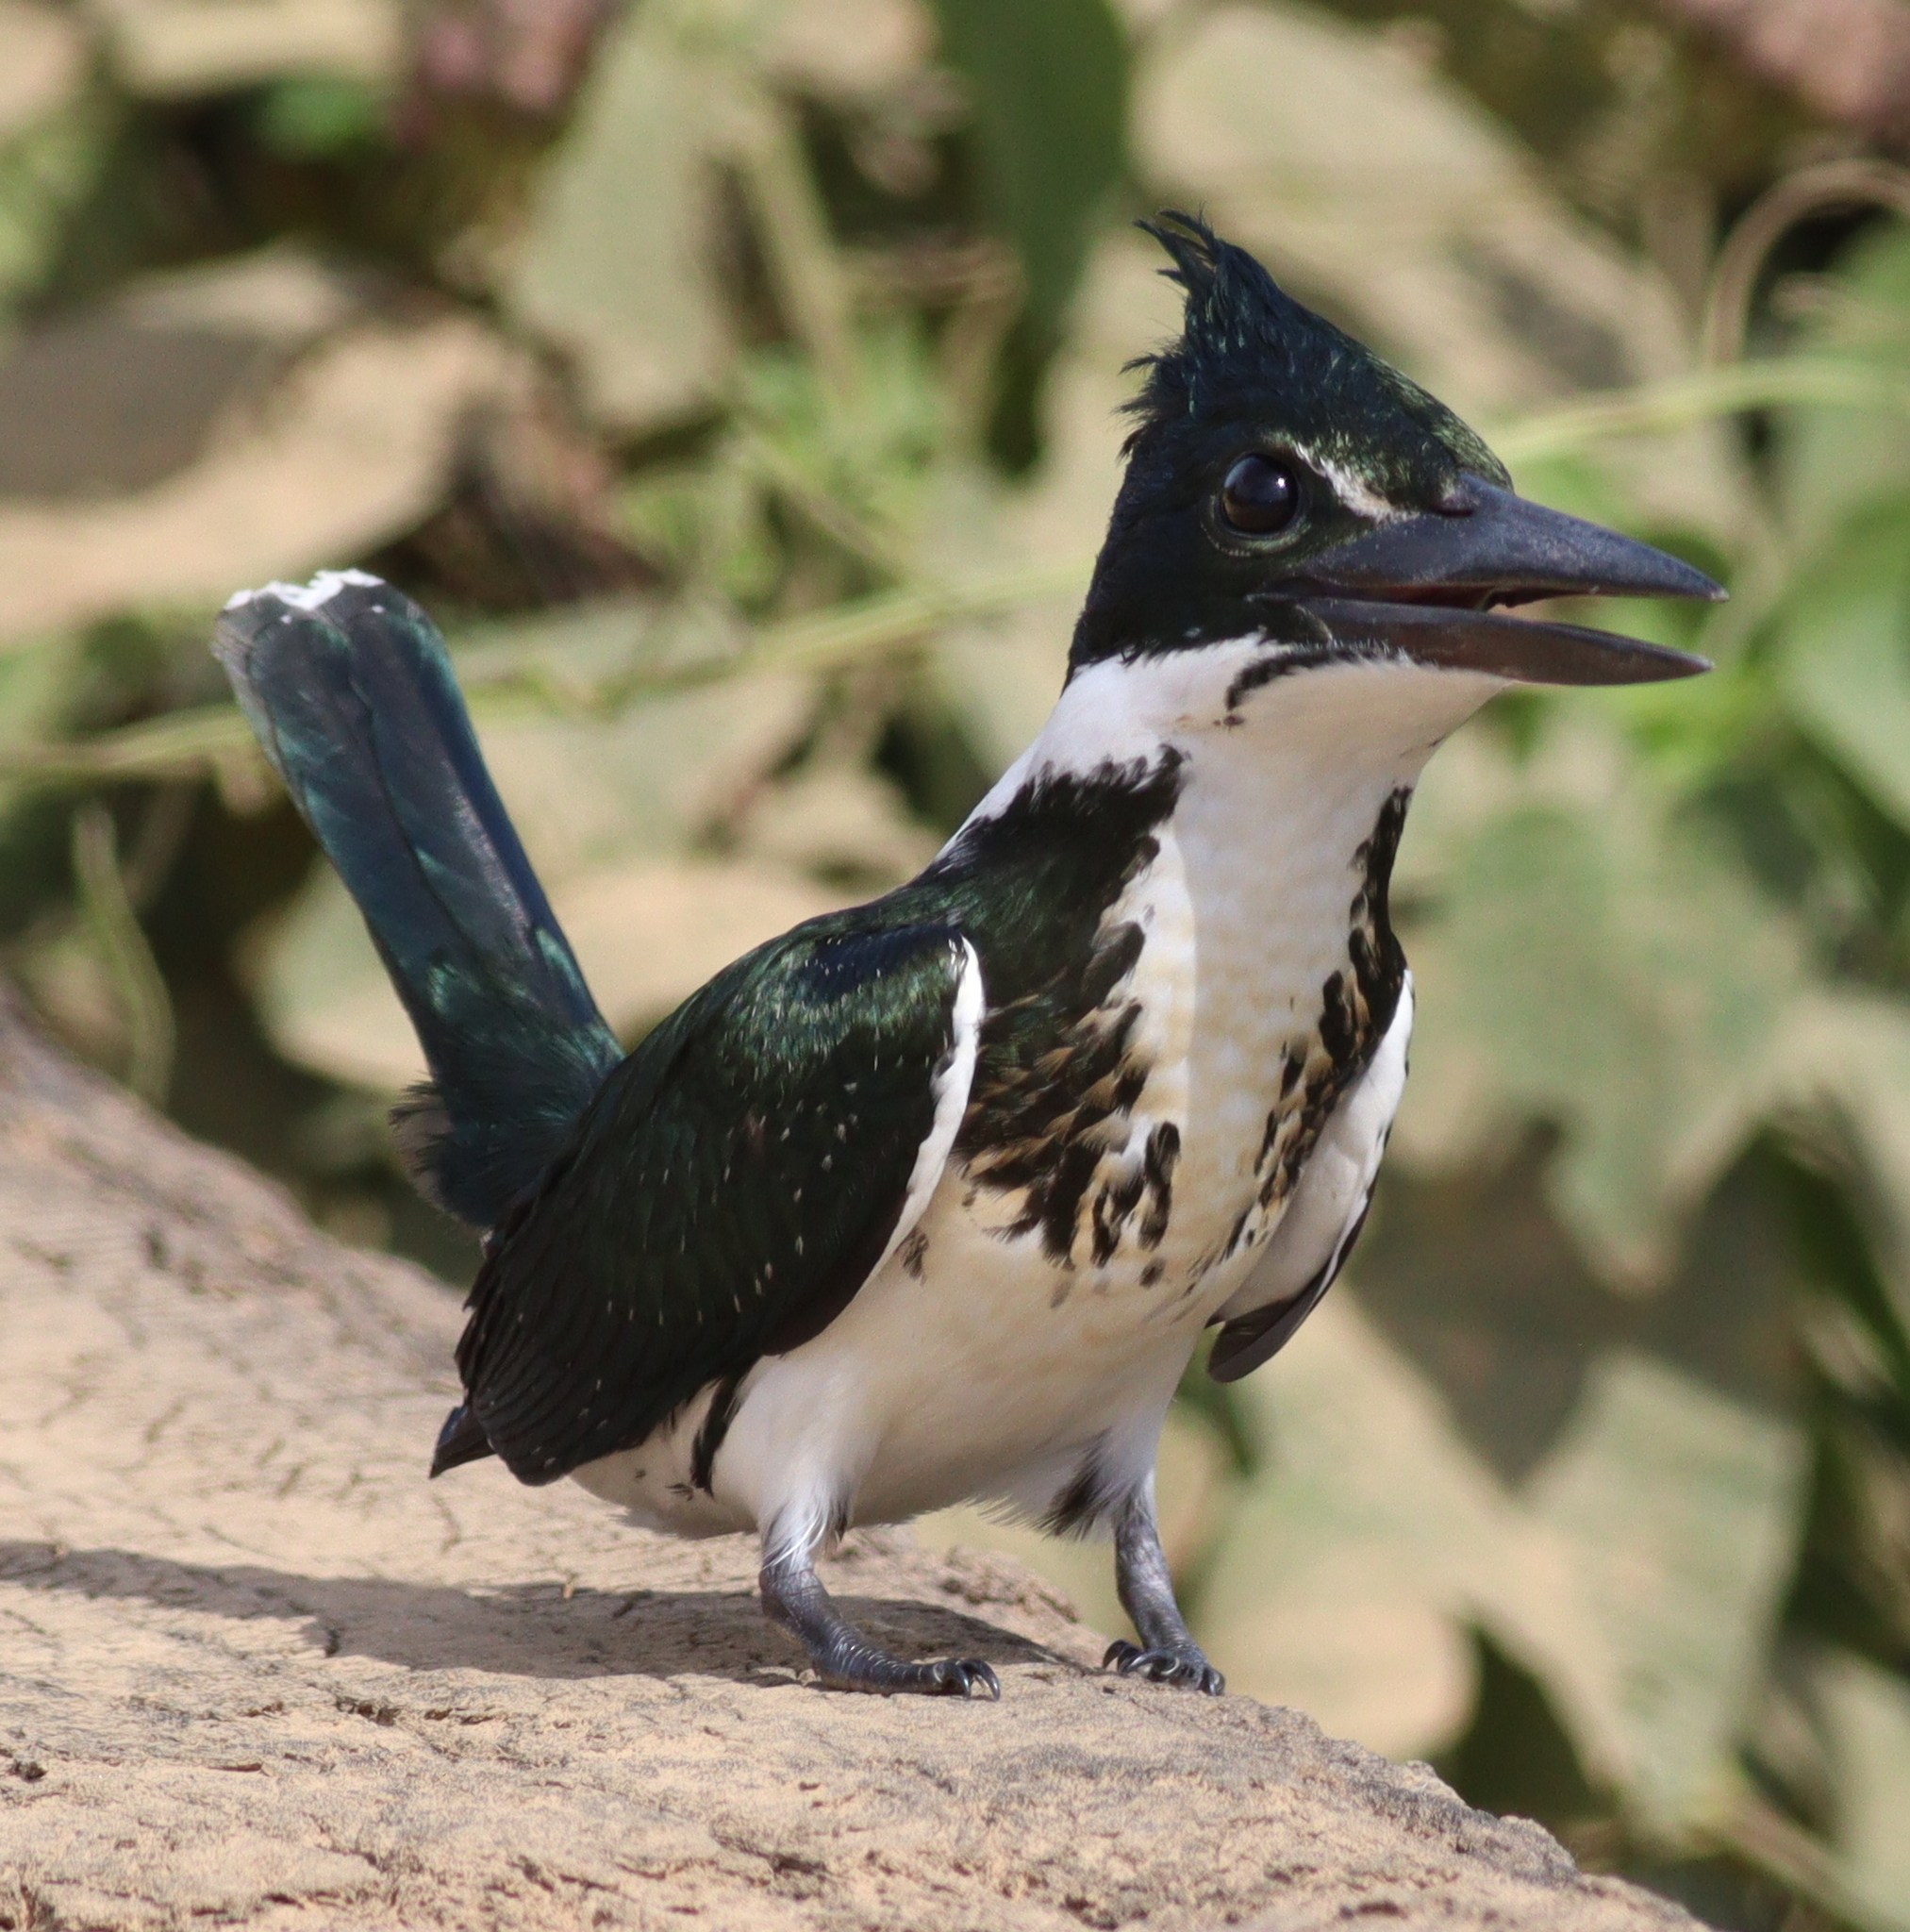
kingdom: Animalia
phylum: Chordata
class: Aves
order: Coraciiformes
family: Alcedinidae
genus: Chloroceryle
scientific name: Chloroceryle amazona
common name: Amazon kingfisher
